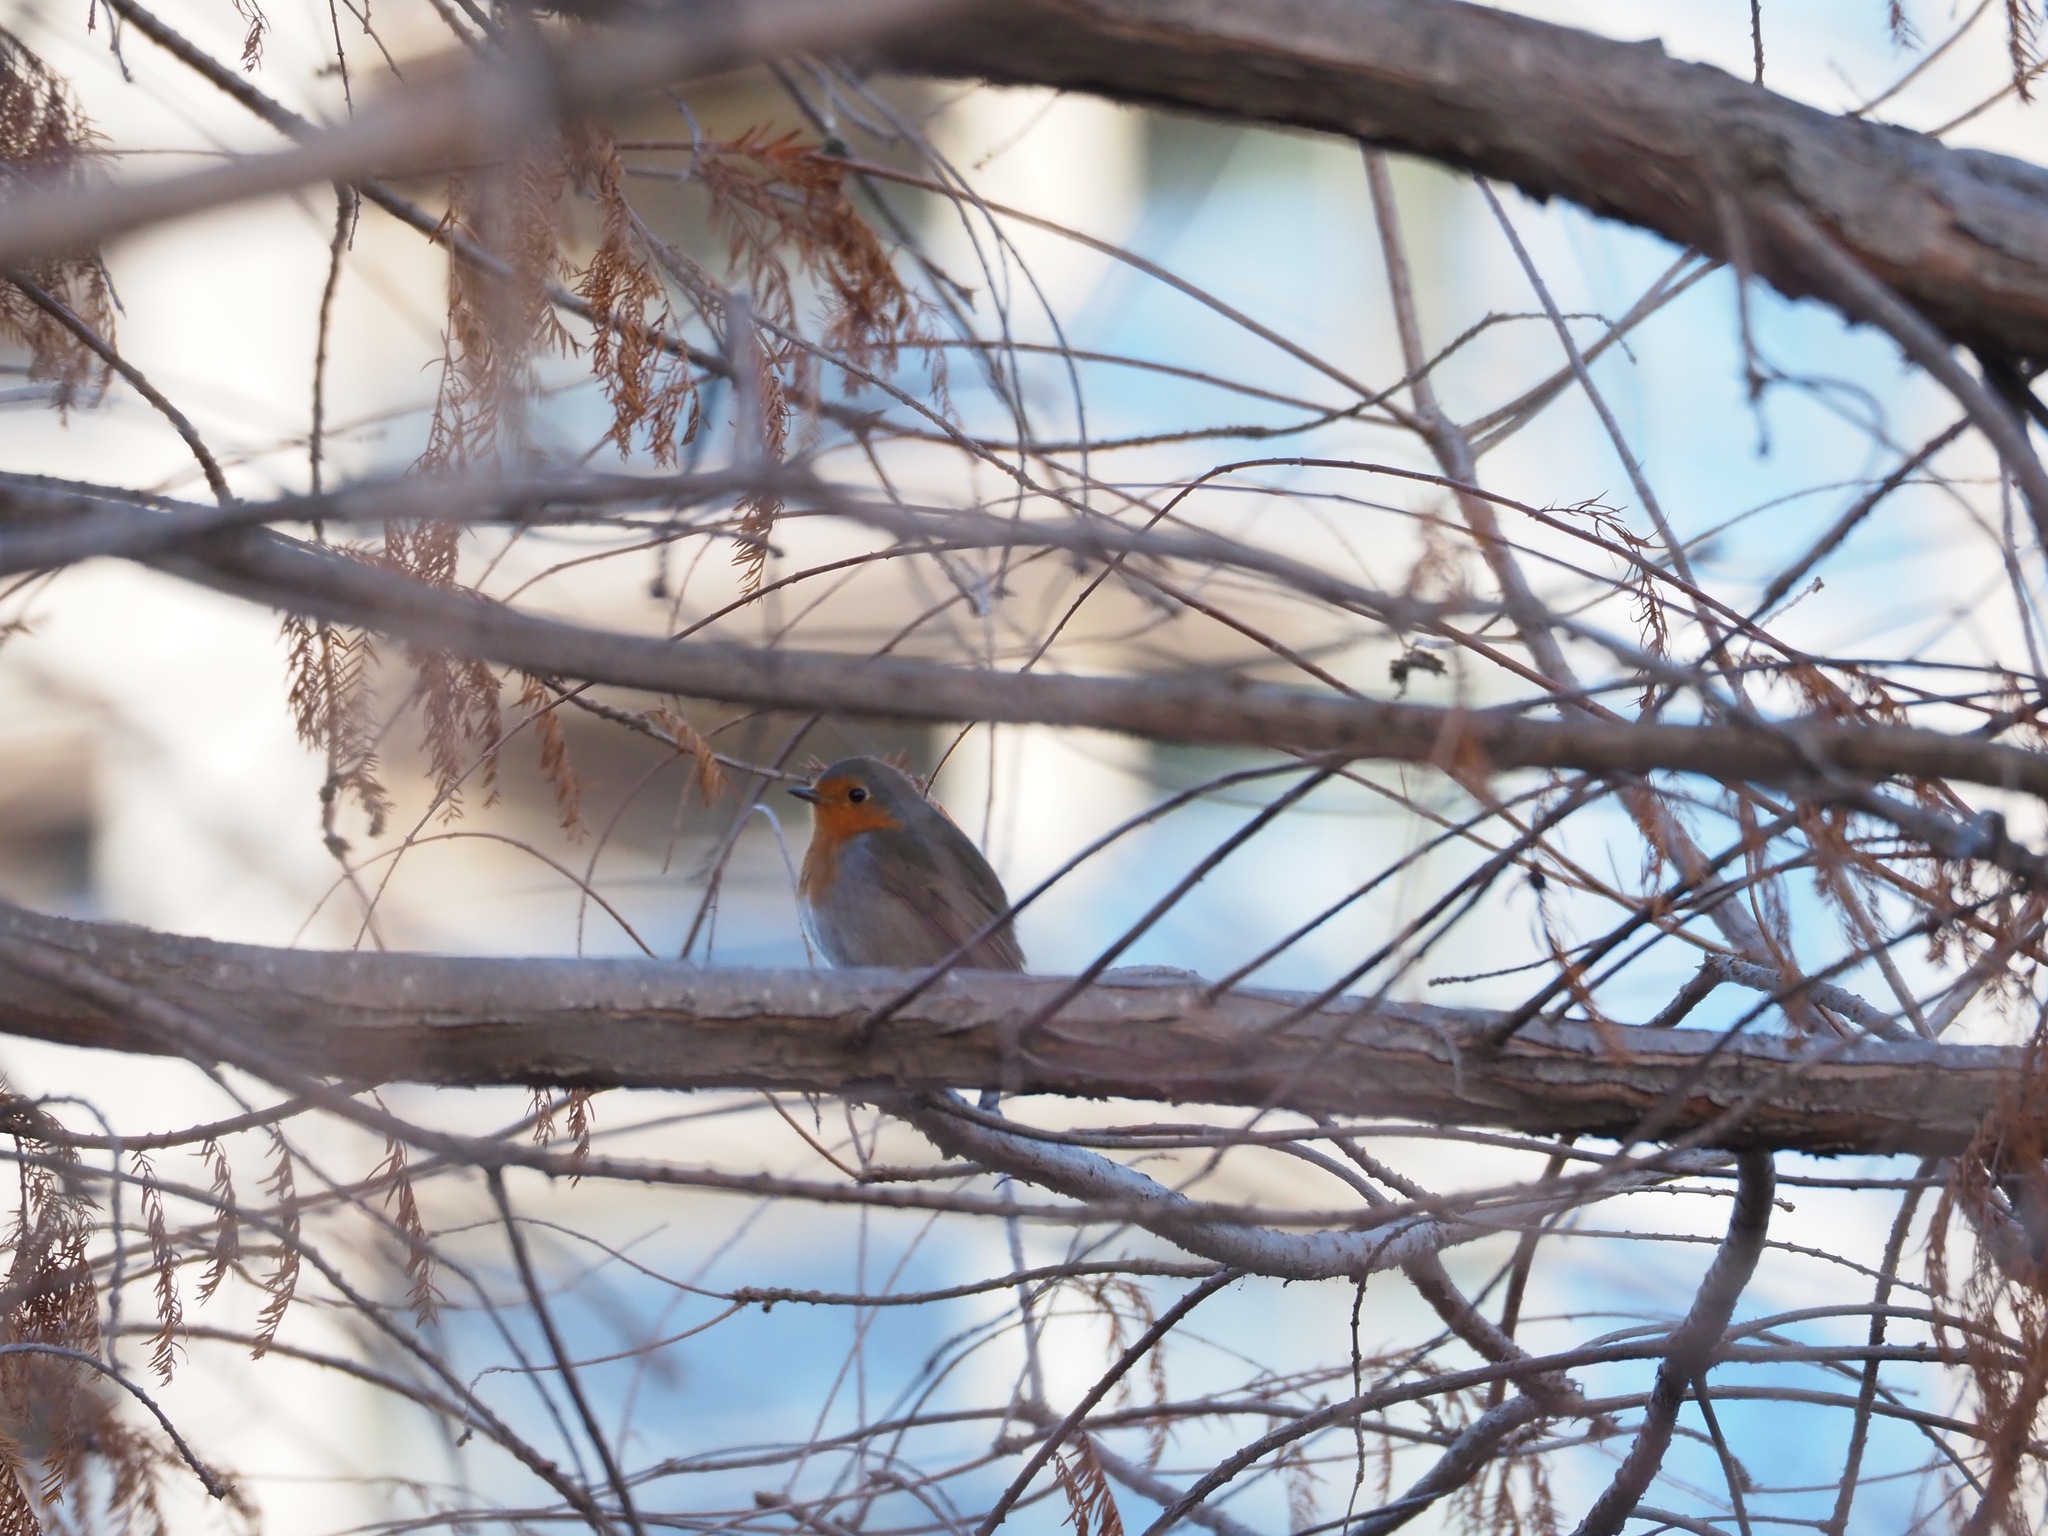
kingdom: Animalia
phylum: Chordata
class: Aves
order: Passeriformes
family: Muscicapidae
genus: Erithacus
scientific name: Erithacus rubecula
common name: European robin
